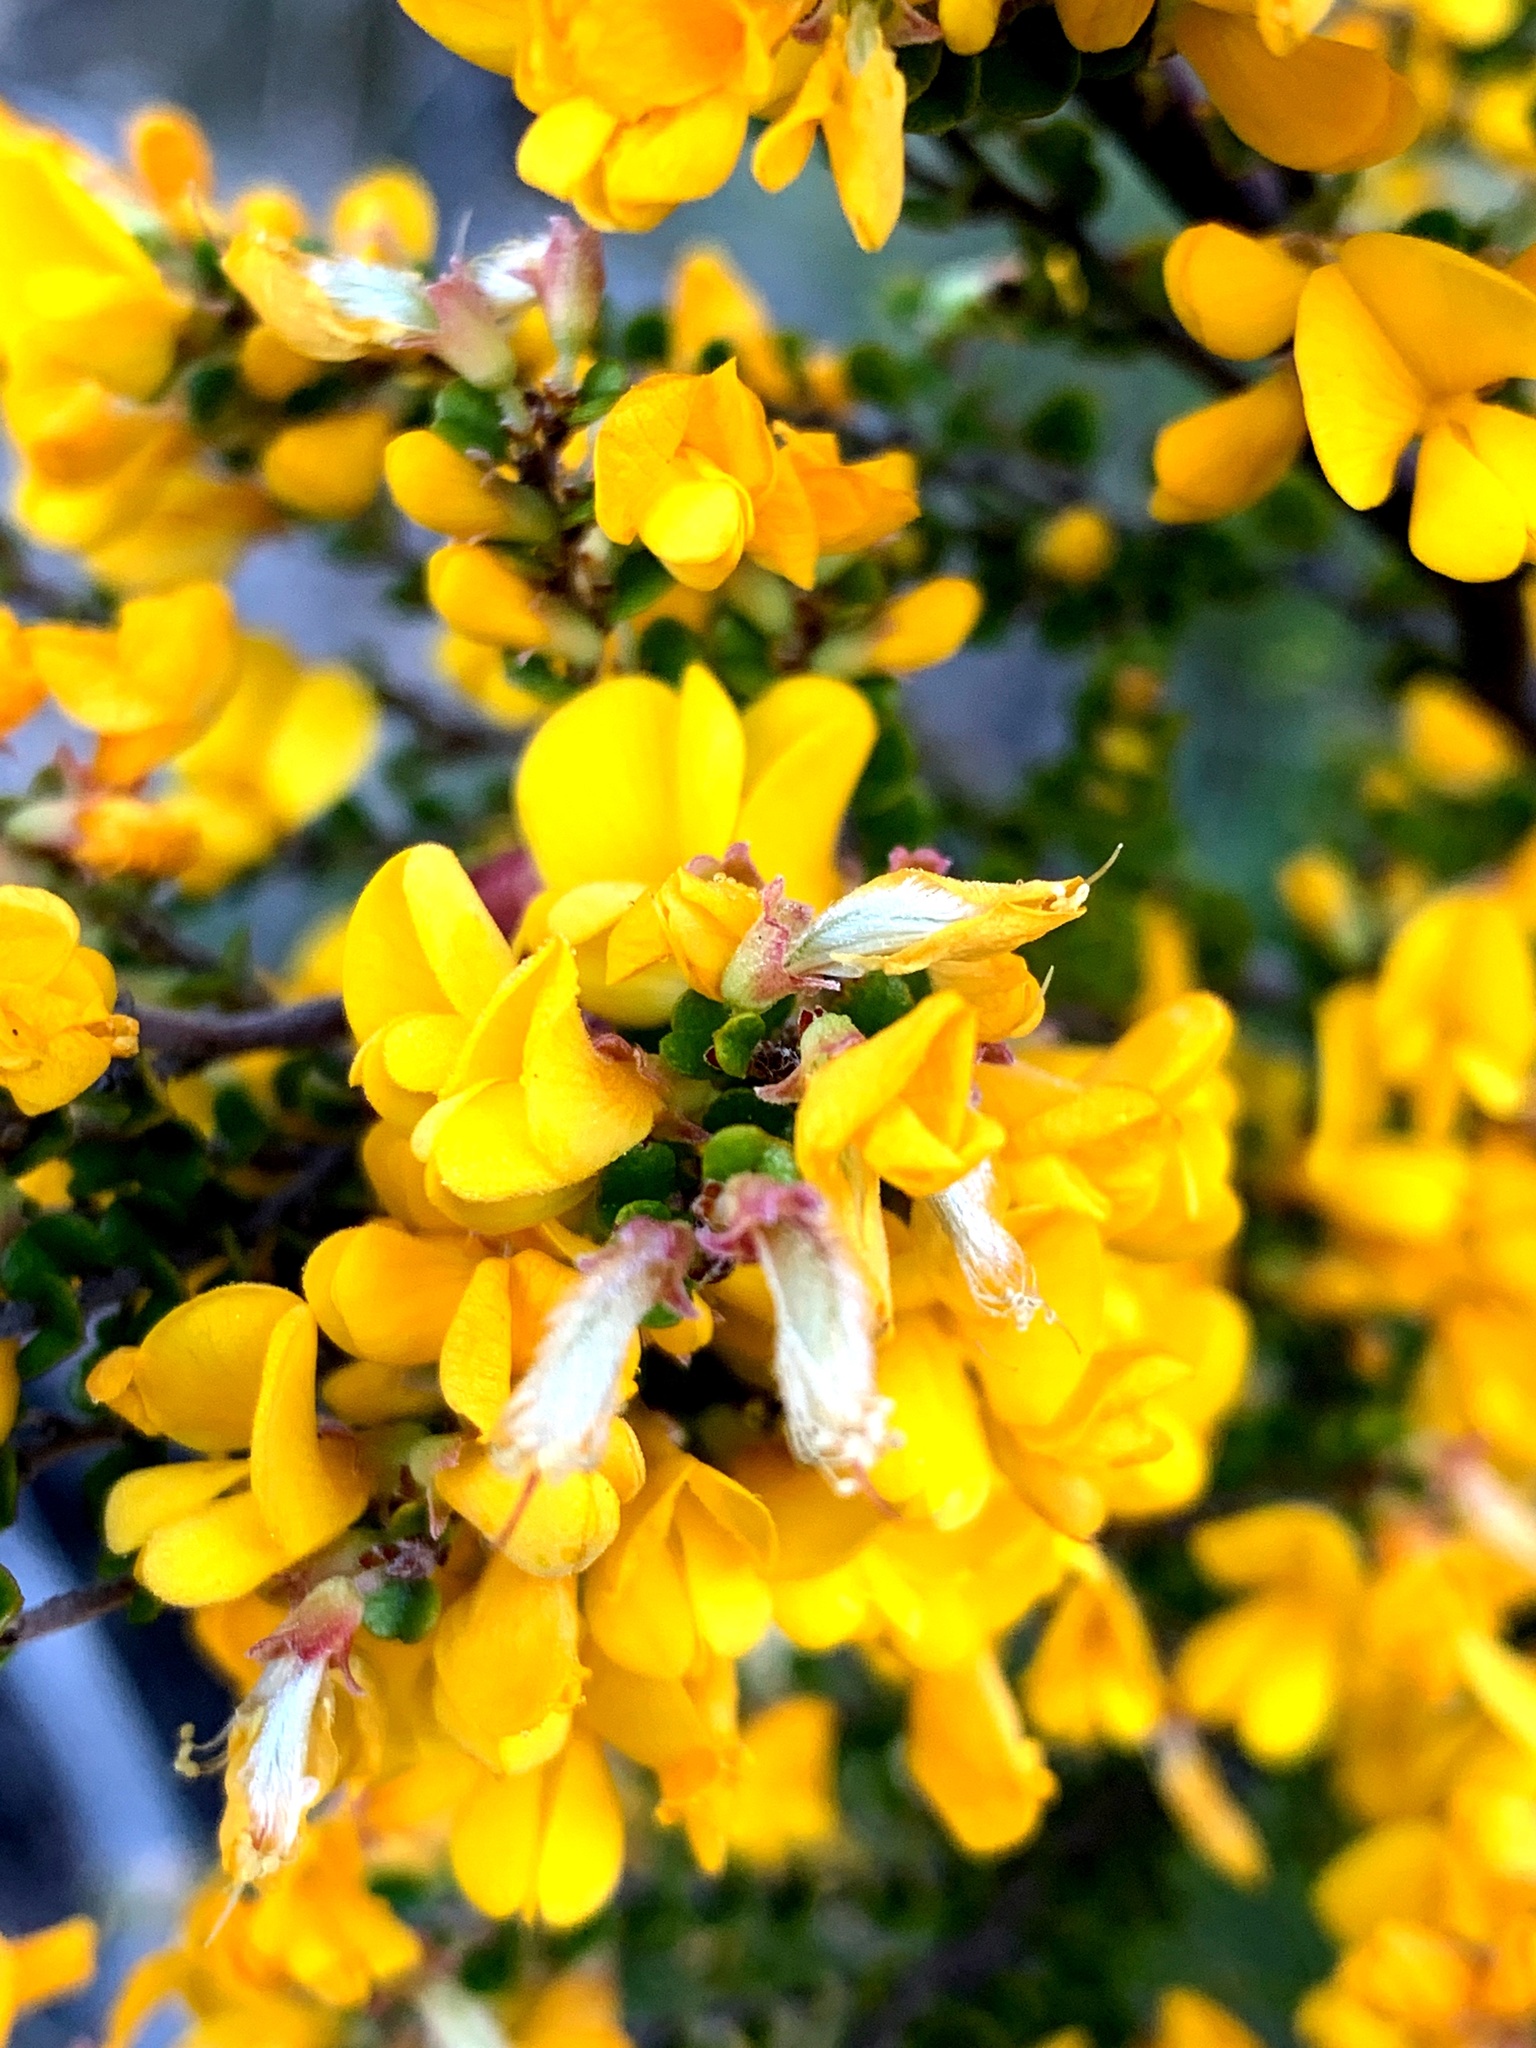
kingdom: Plantae
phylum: Tracheophyta
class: Magnoliopsida
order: Fabales
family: Fabaceae
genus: Bossiaea
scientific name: Bossiaea foliosa
